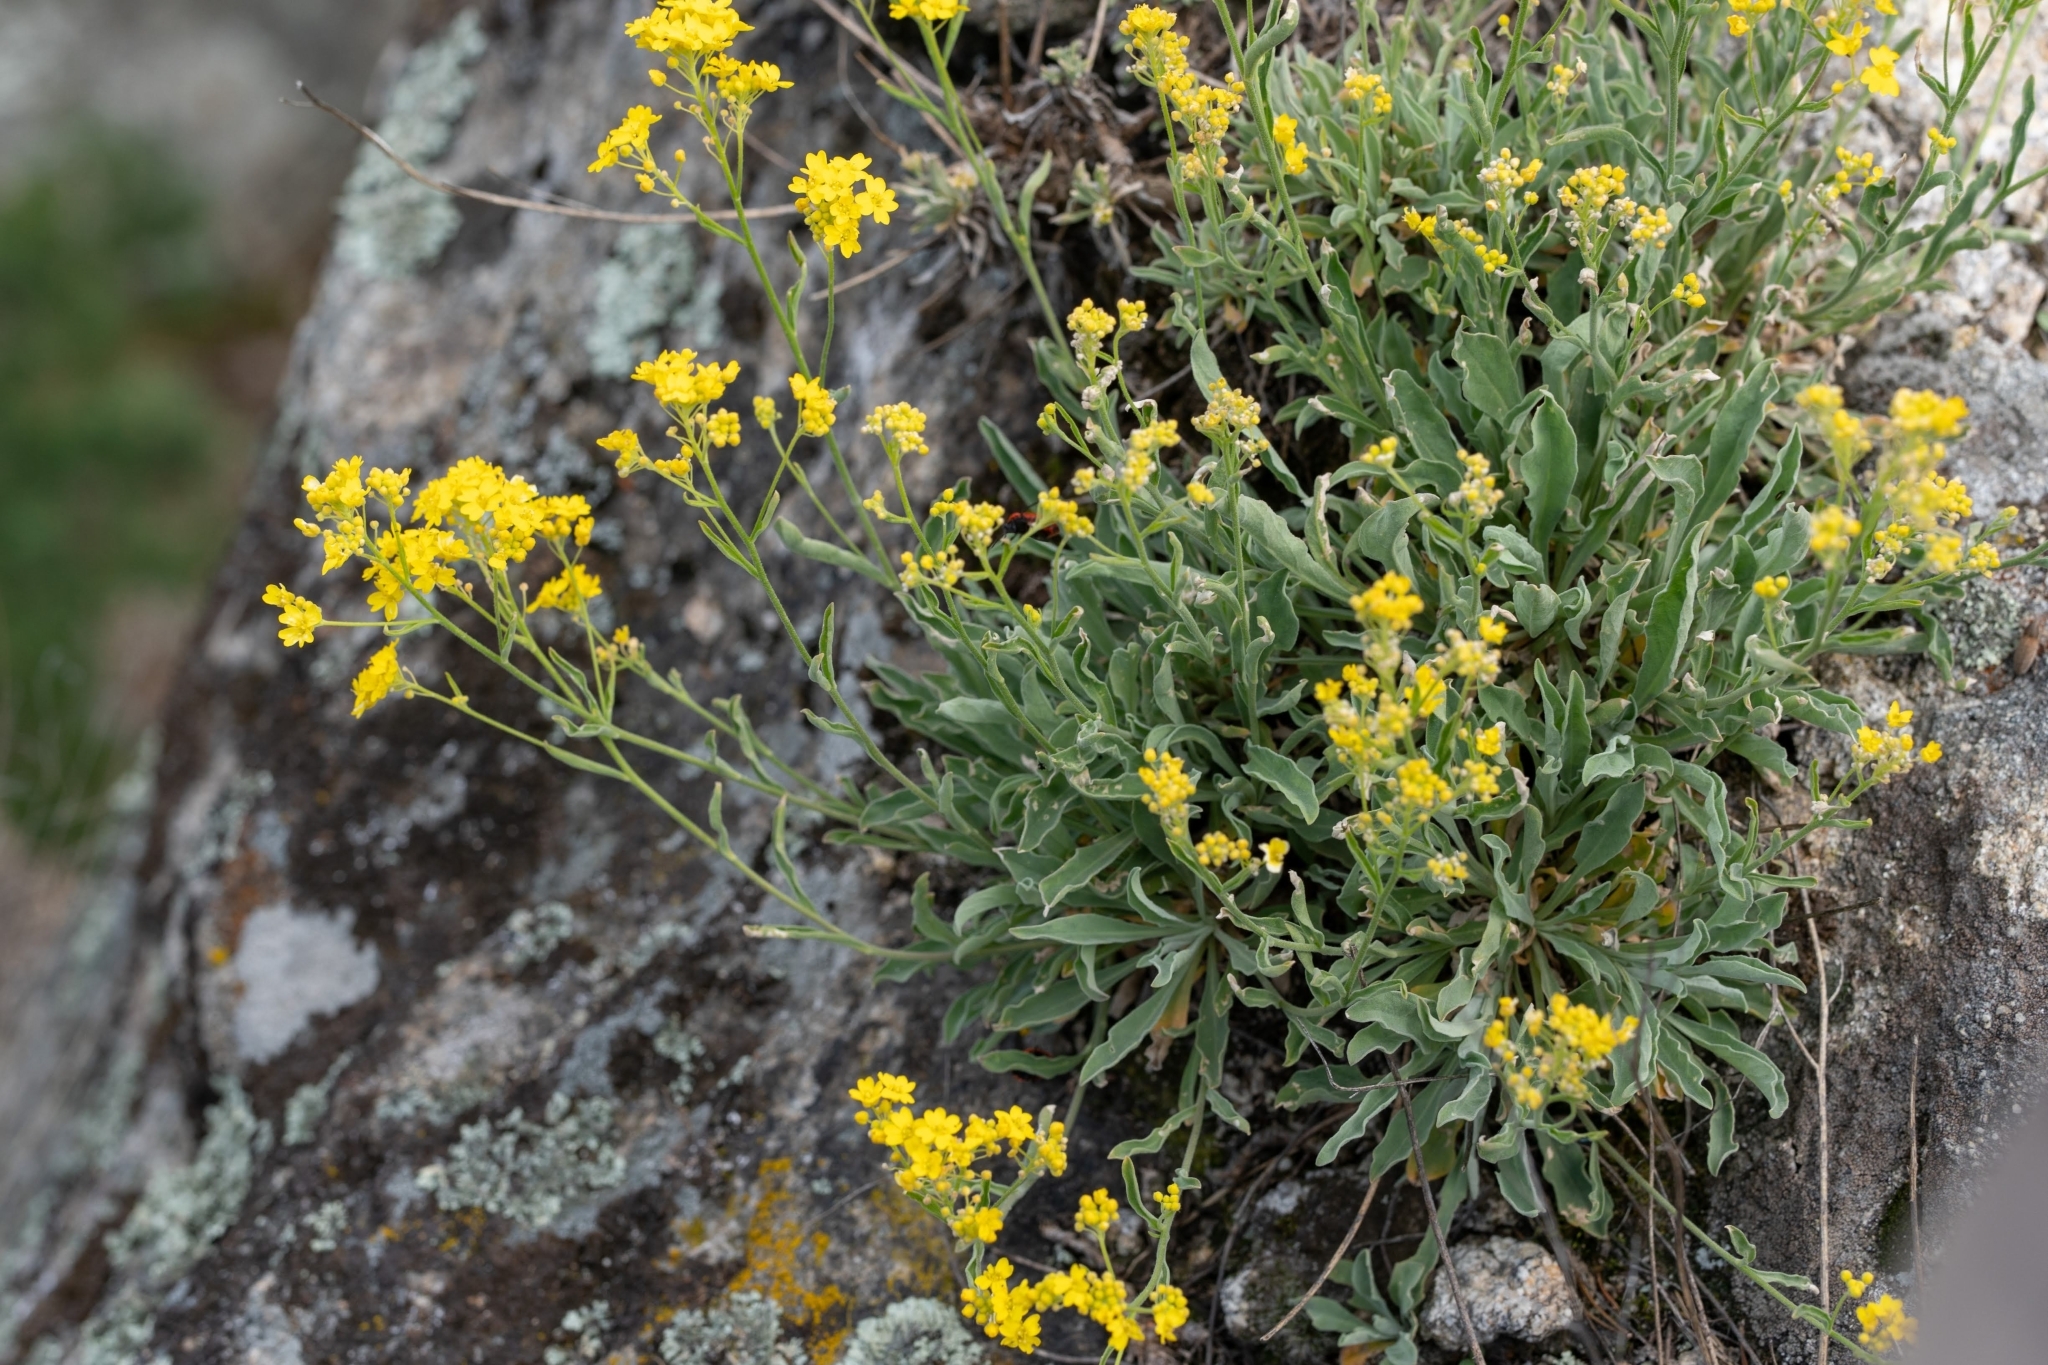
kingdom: Plantae
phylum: Tracheophyta
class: Magnoliopsida
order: Brassicales
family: Brassicaceae
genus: Aurinia
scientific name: Aurinia saxatilis
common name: Golden-tuft alyssum
